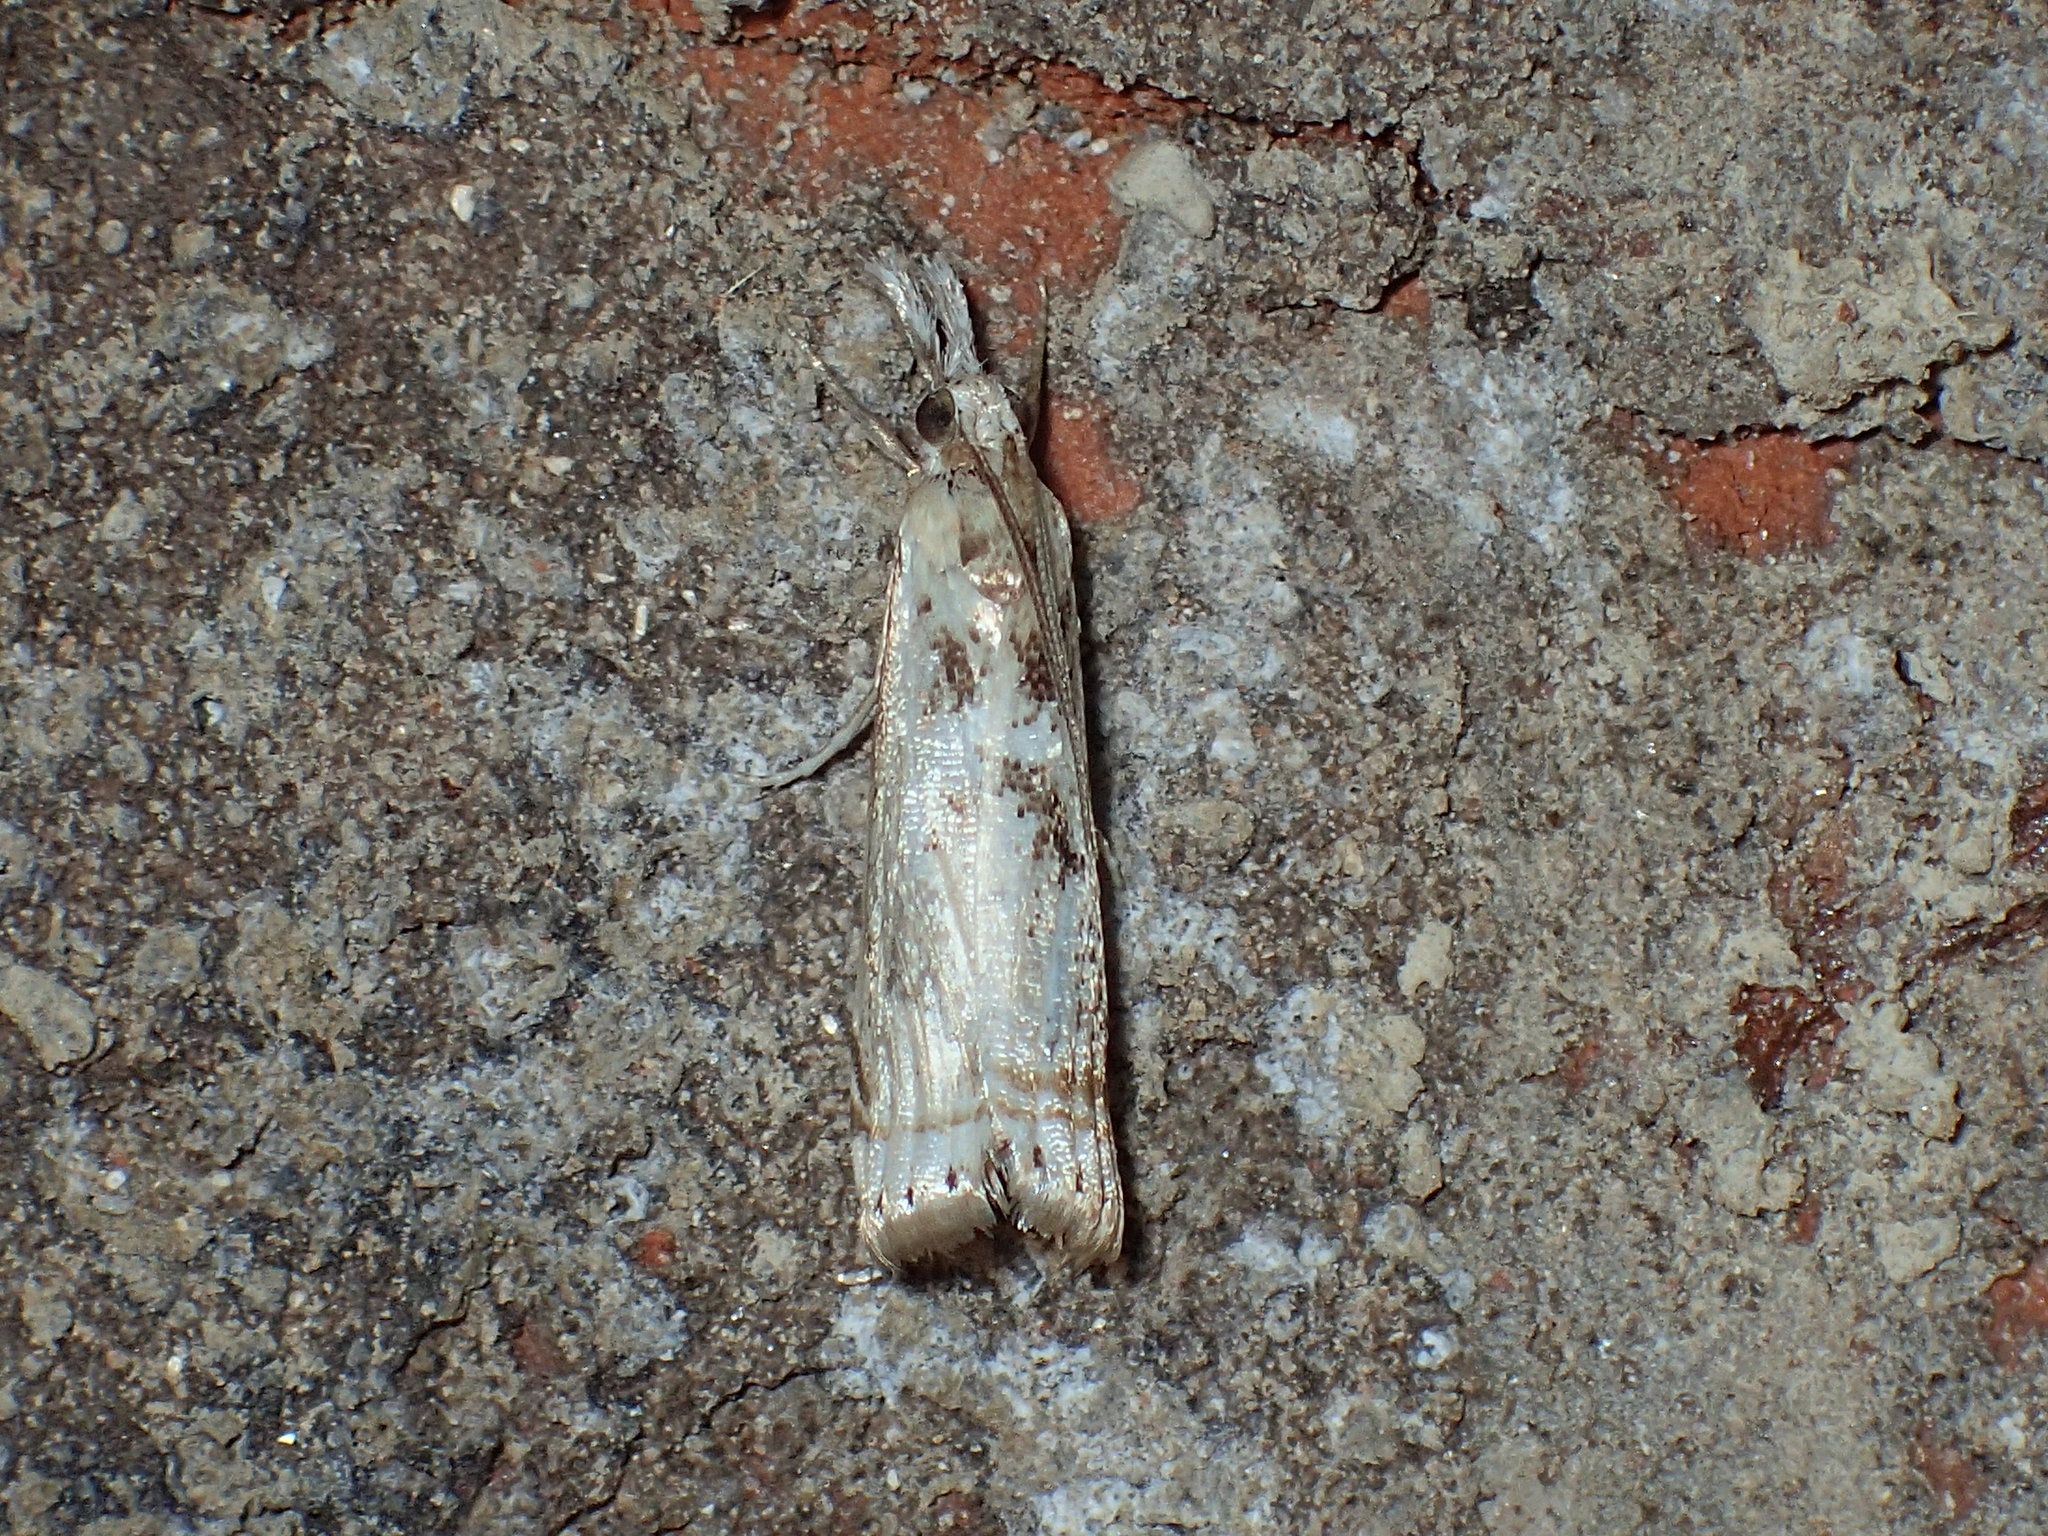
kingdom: Animalia
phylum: Arthropoda
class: Insecta
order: Lepidoptera
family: Crambidae
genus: Microcrambus
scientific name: Microcrambus elegans
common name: Elegant grass-veneer
